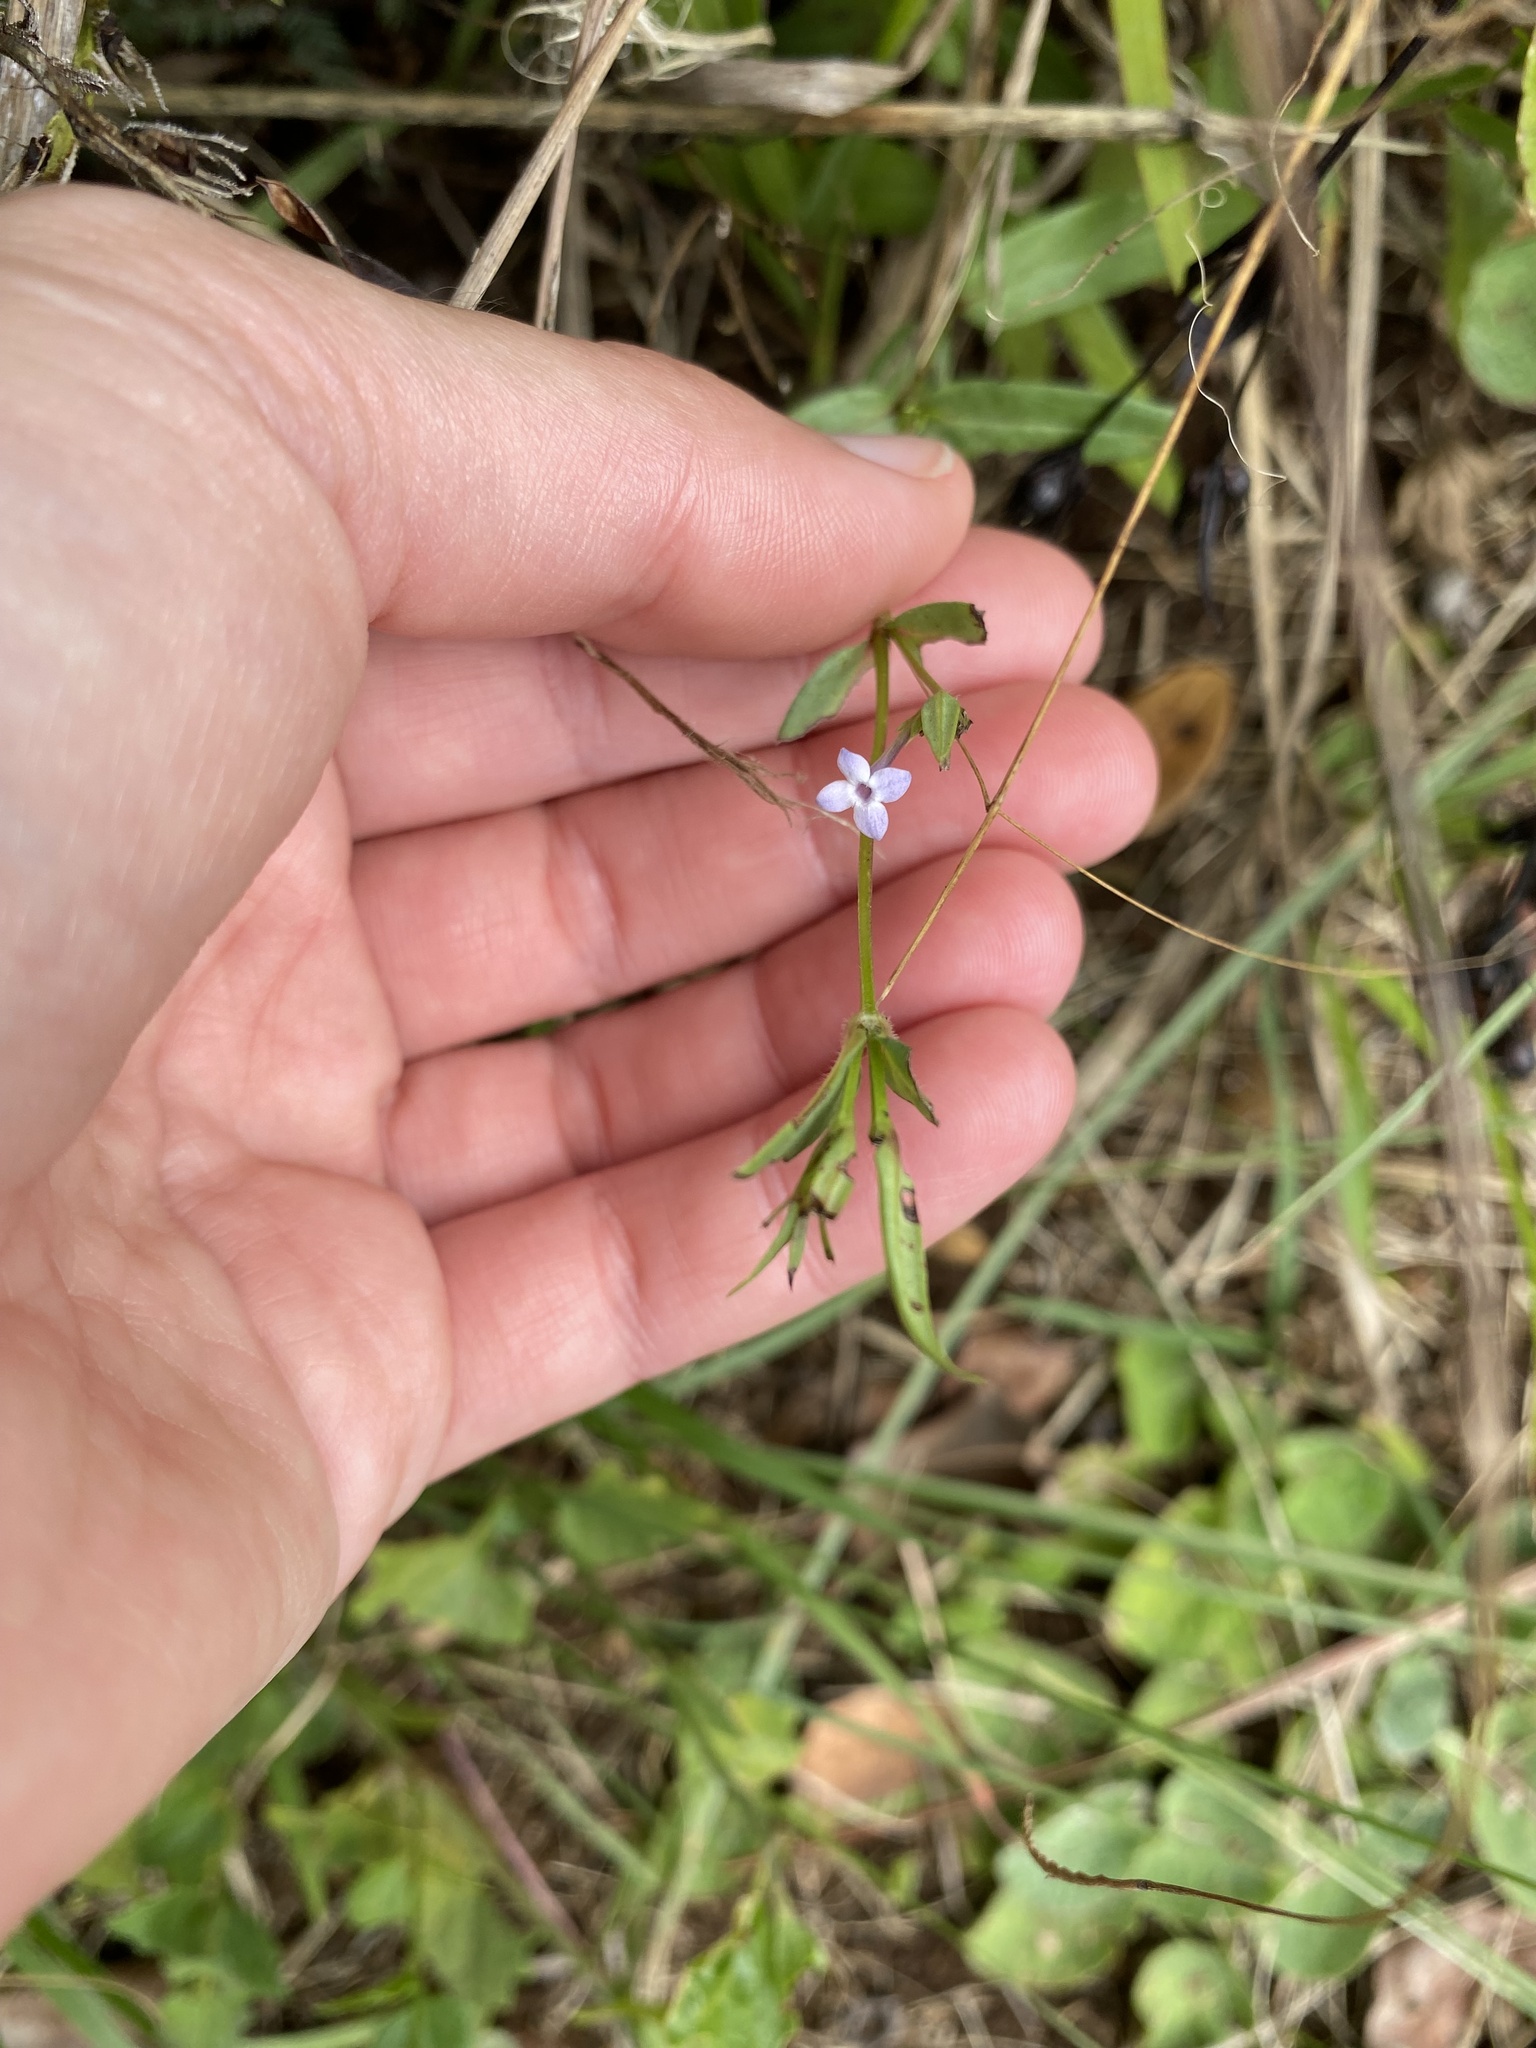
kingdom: Plantae
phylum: Tracheophyta
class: Magnoliopsida
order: Gentianales
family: Rubiaceae
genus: Conostomium
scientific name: Conostomium natalense
